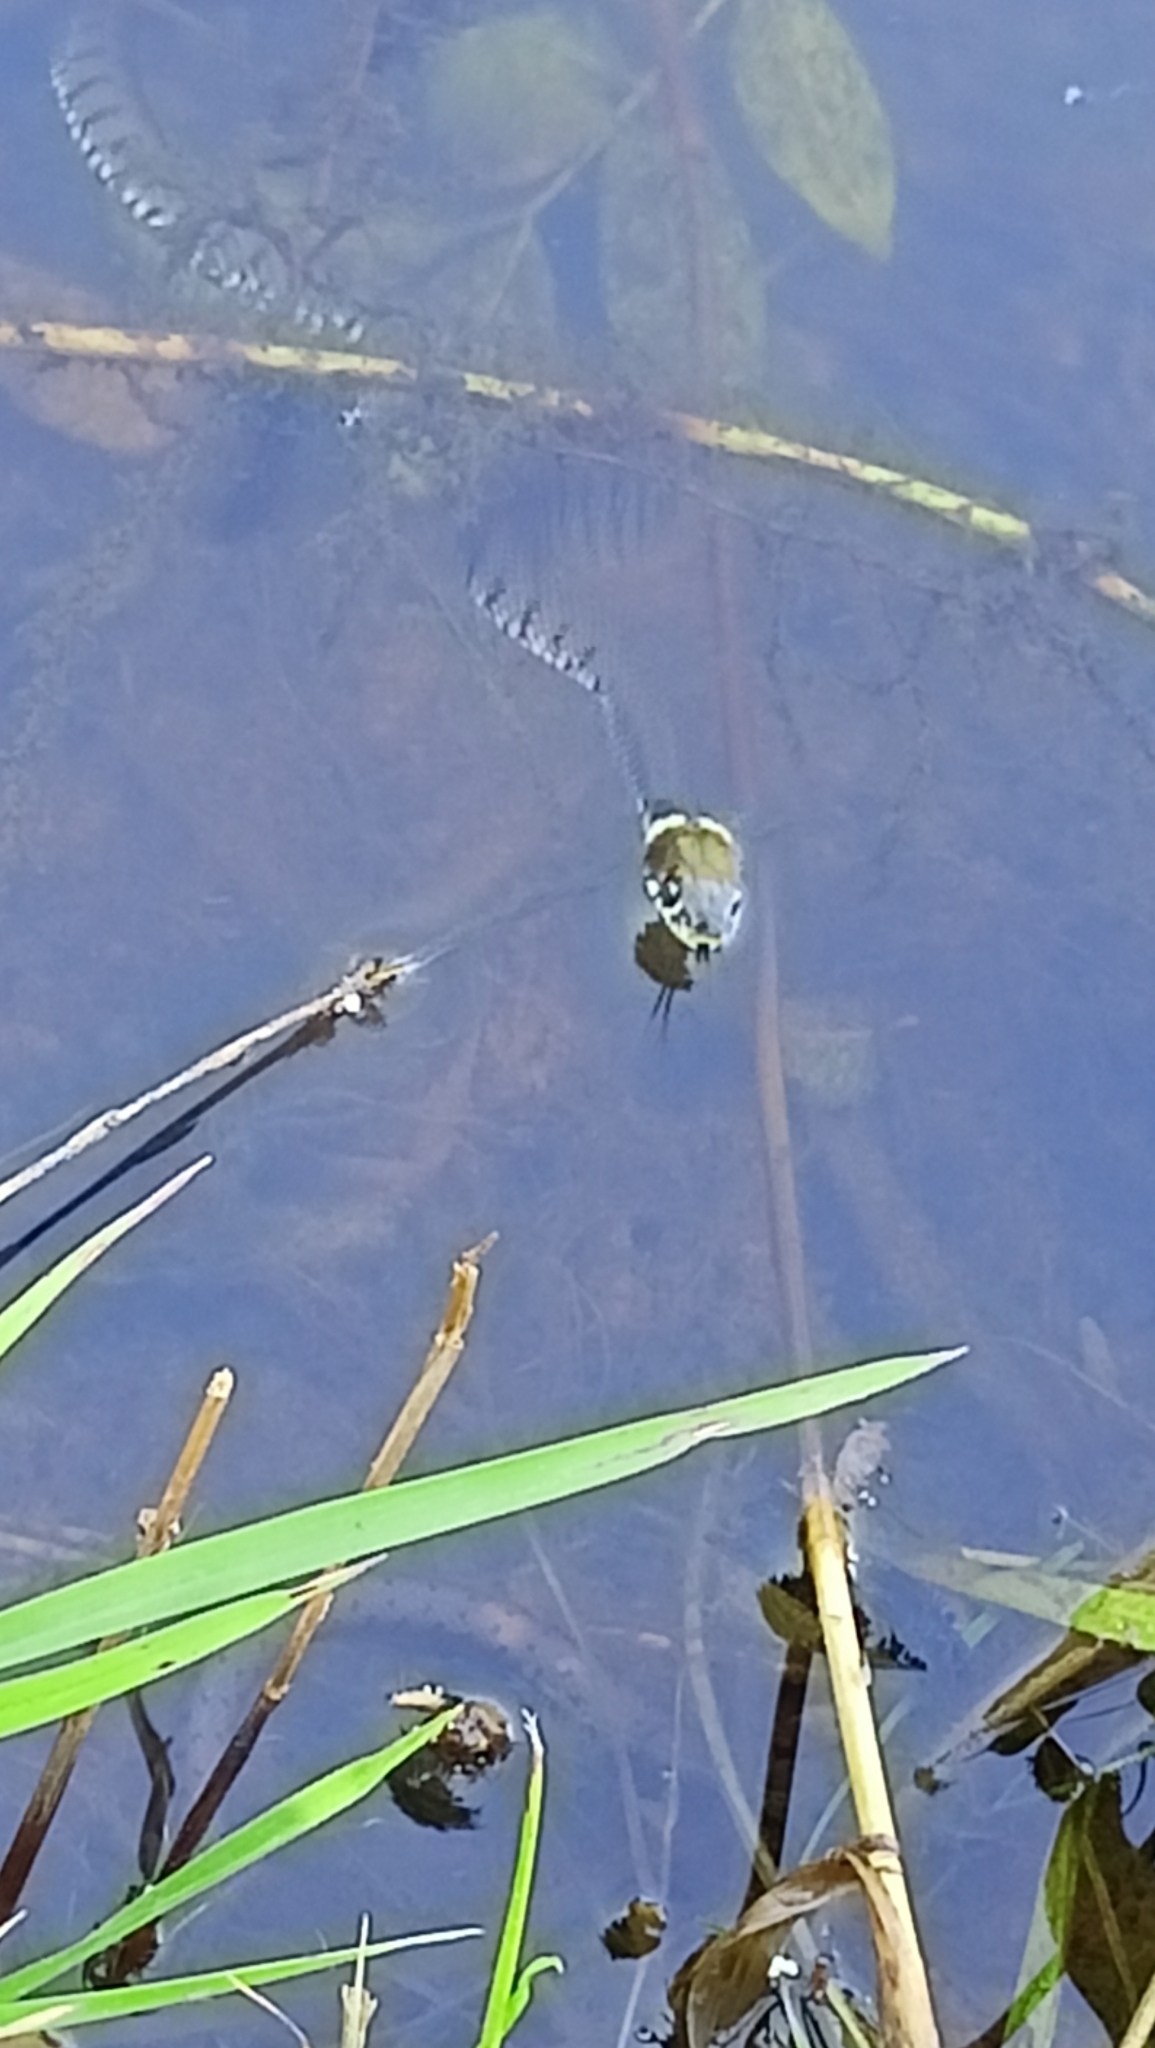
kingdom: Animalia
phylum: Chordata
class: Squamata
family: Colubridae
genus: Natrix
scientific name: Natrix helvetica
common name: Banded grass snake
